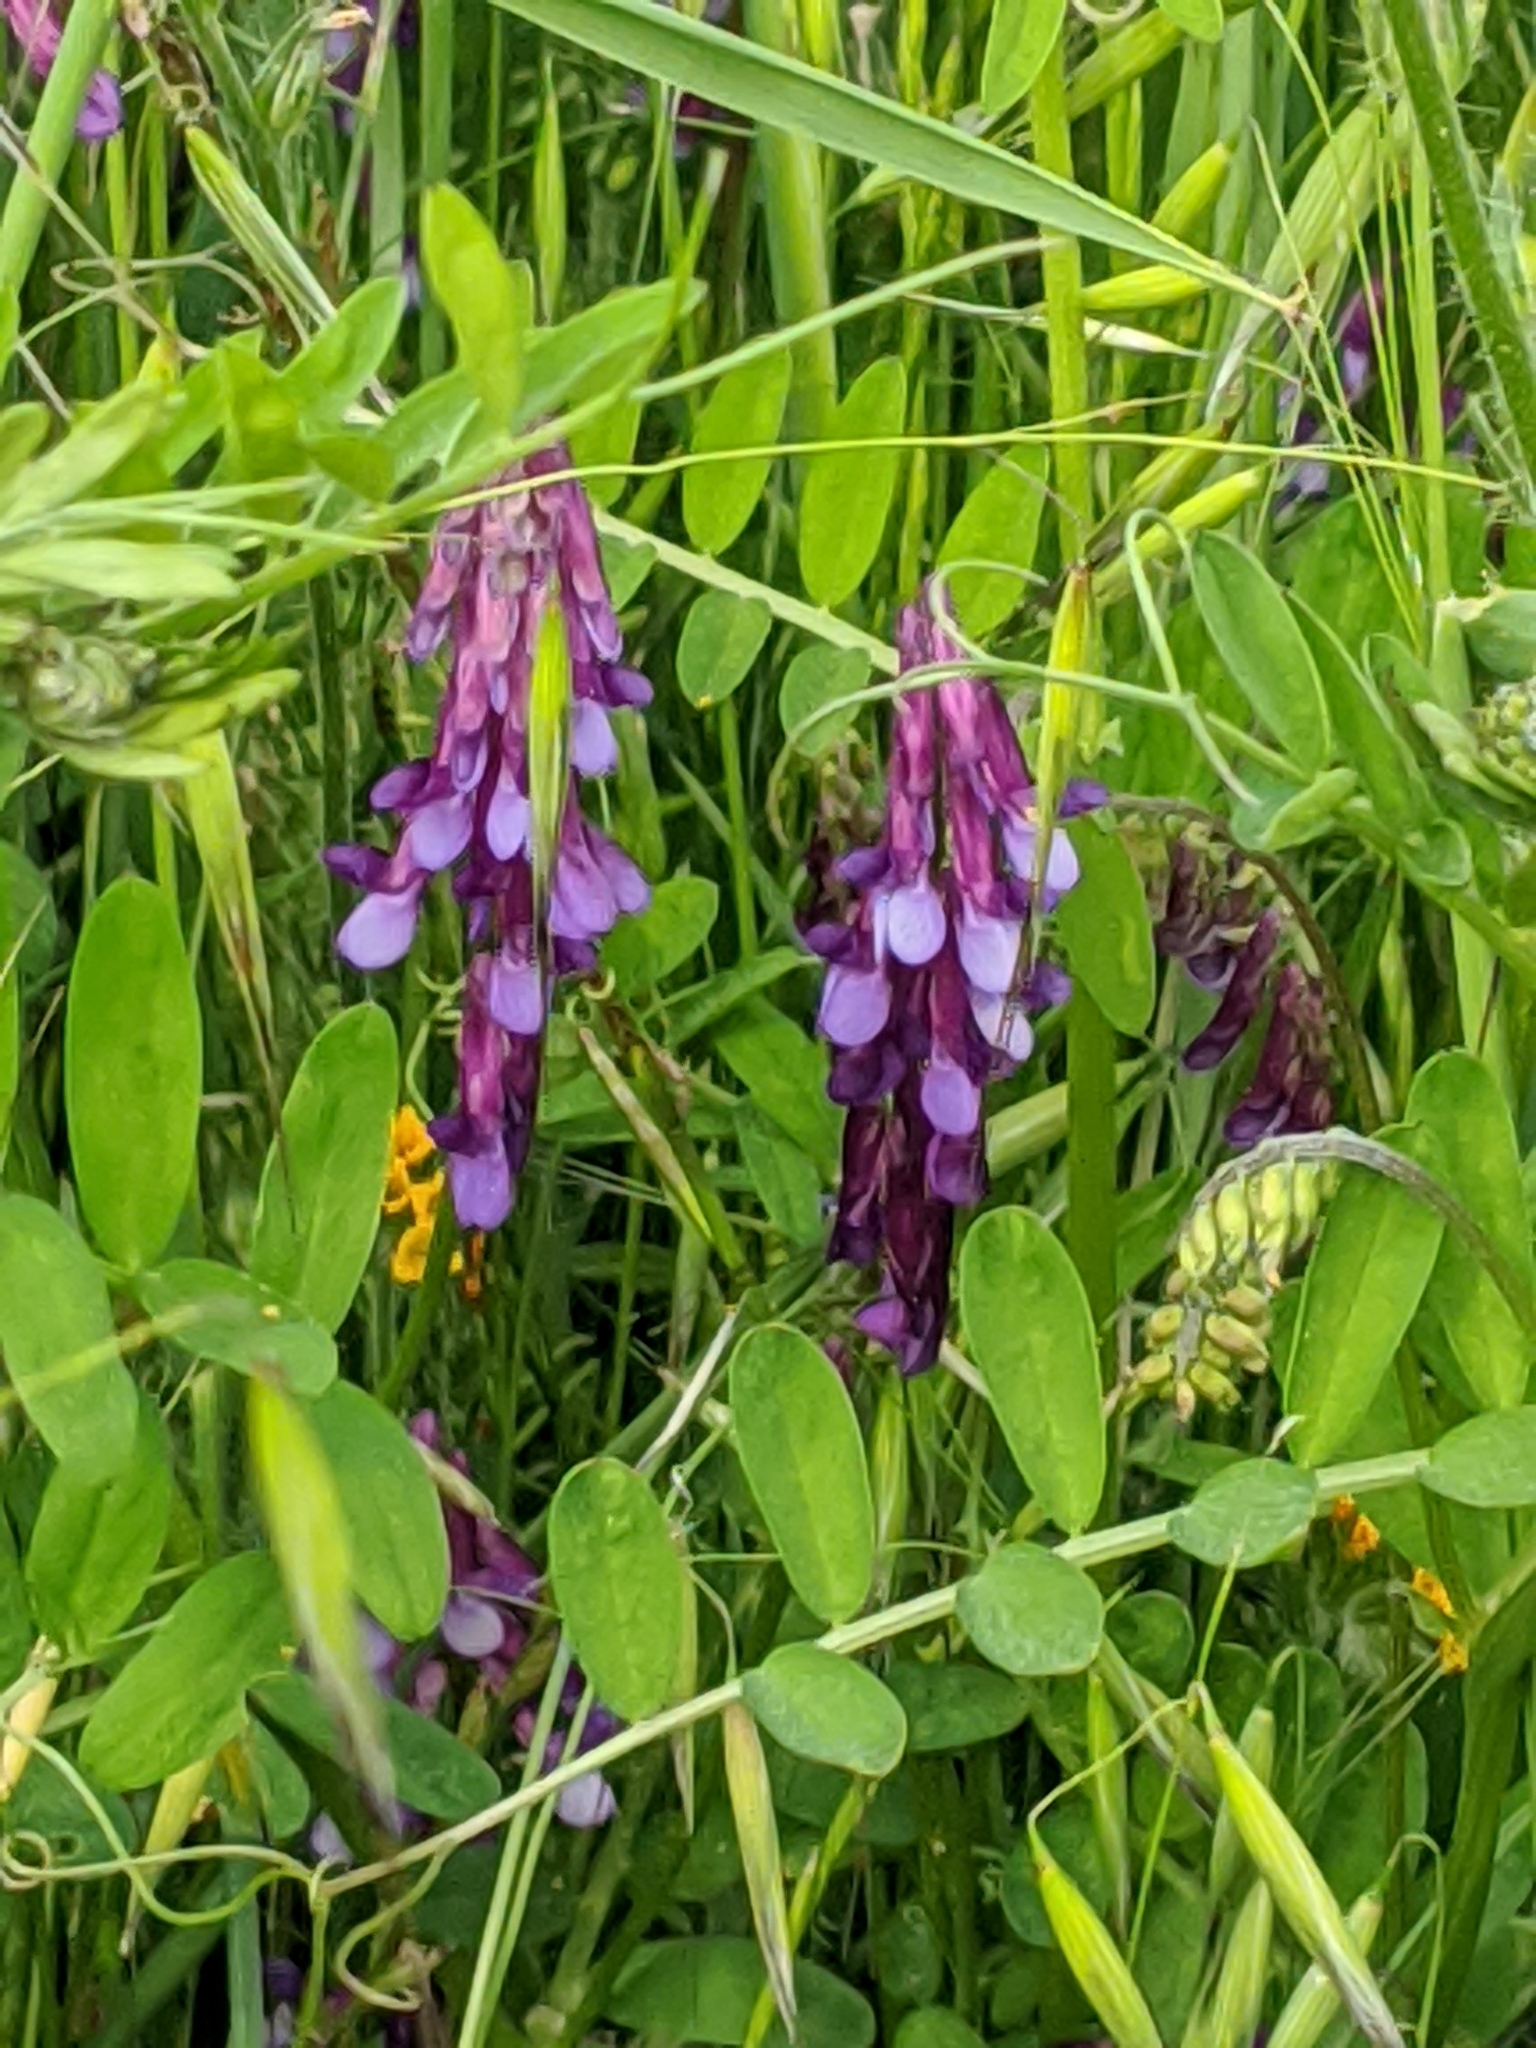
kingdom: Plantae
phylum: Tracheophyta
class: Magnoliopsida
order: Fabales
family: Fabaceae
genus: Vicia
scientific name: Vicia villosa
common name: Fodder vetch
